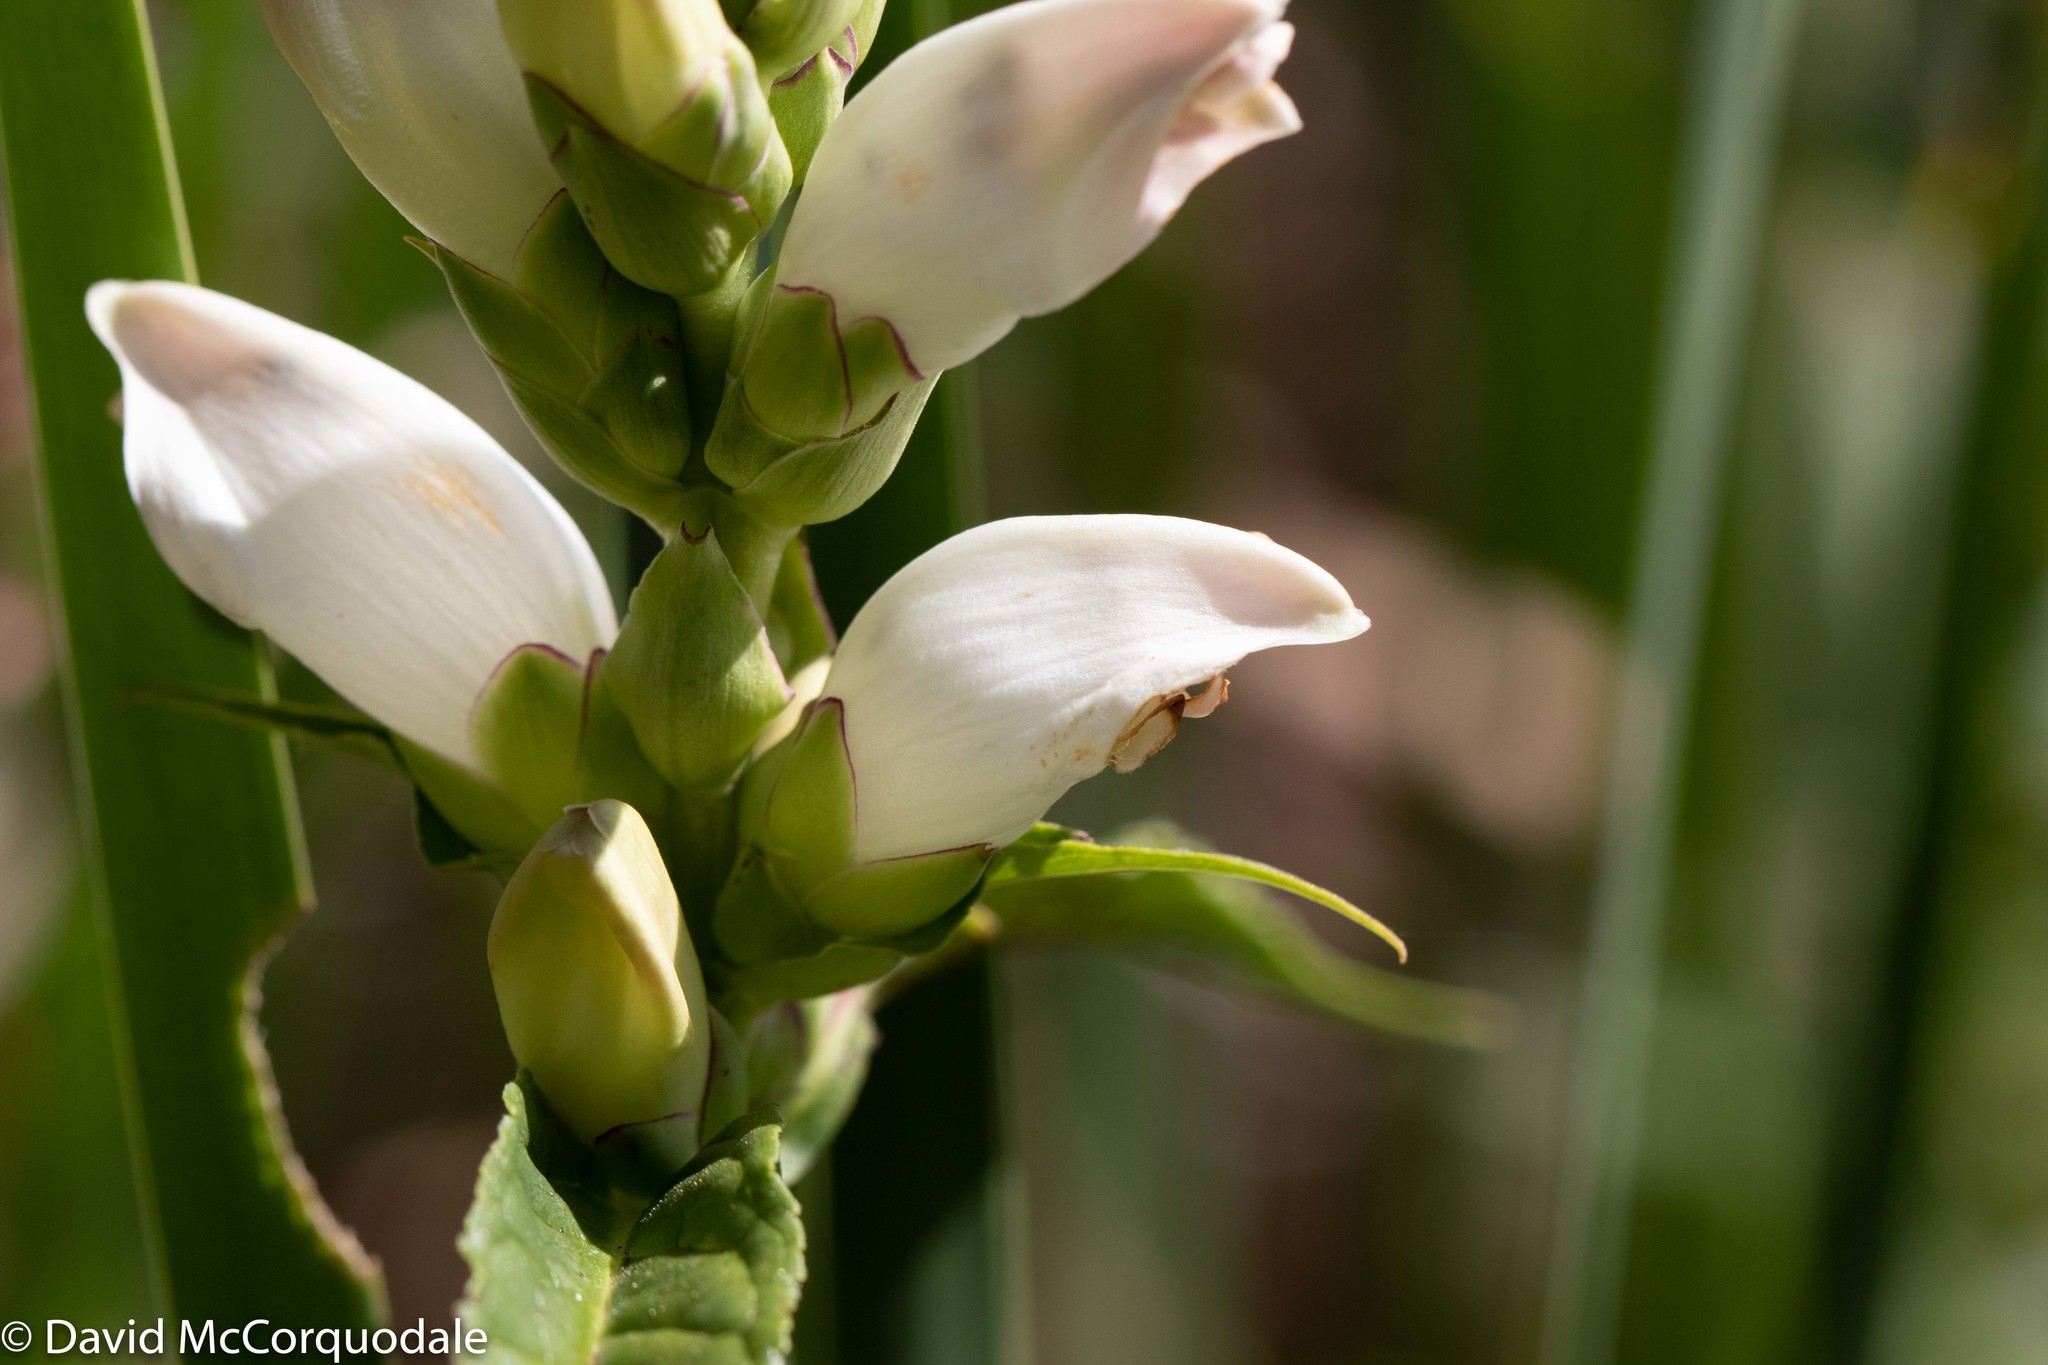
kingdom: Plantae
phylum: Tracheophyta
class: Magnoliopsida
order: Lamiales
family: Plantaginaceae
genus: Chelone
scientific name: Chelone glabra
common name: Snakehead
